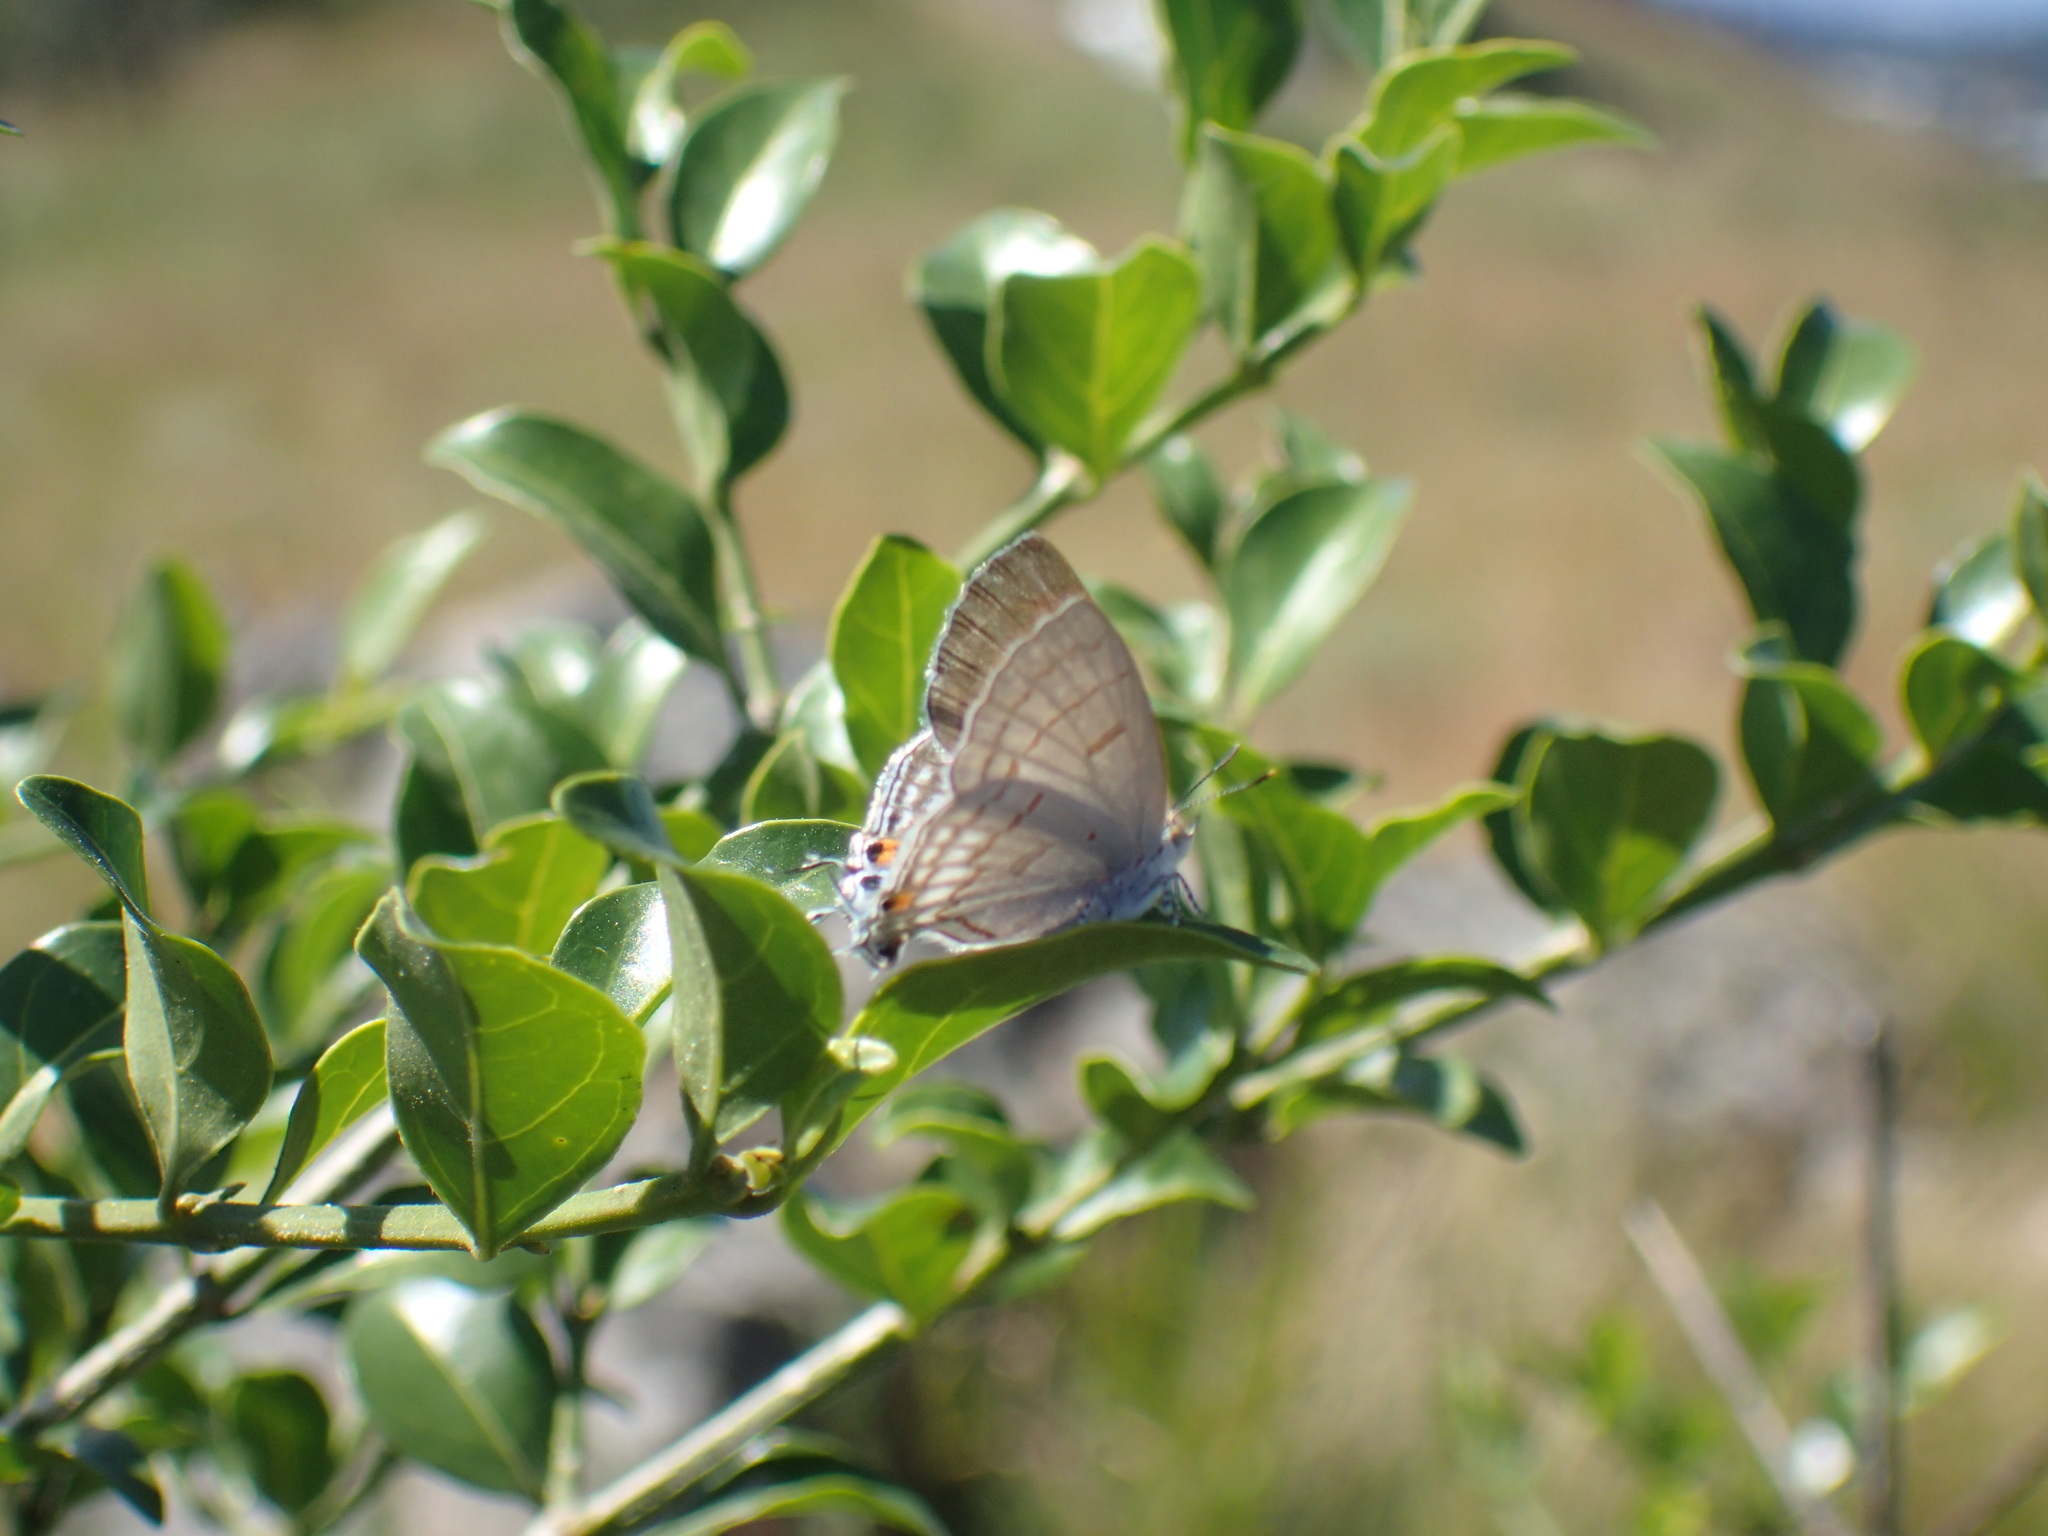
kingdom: Animalia
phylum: Arthropoda
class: Insecta
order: Lepidoptera
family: Lycaenidae
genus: Hypolycaena
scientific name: Hypolycaena philippus
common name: Common hairstreak
